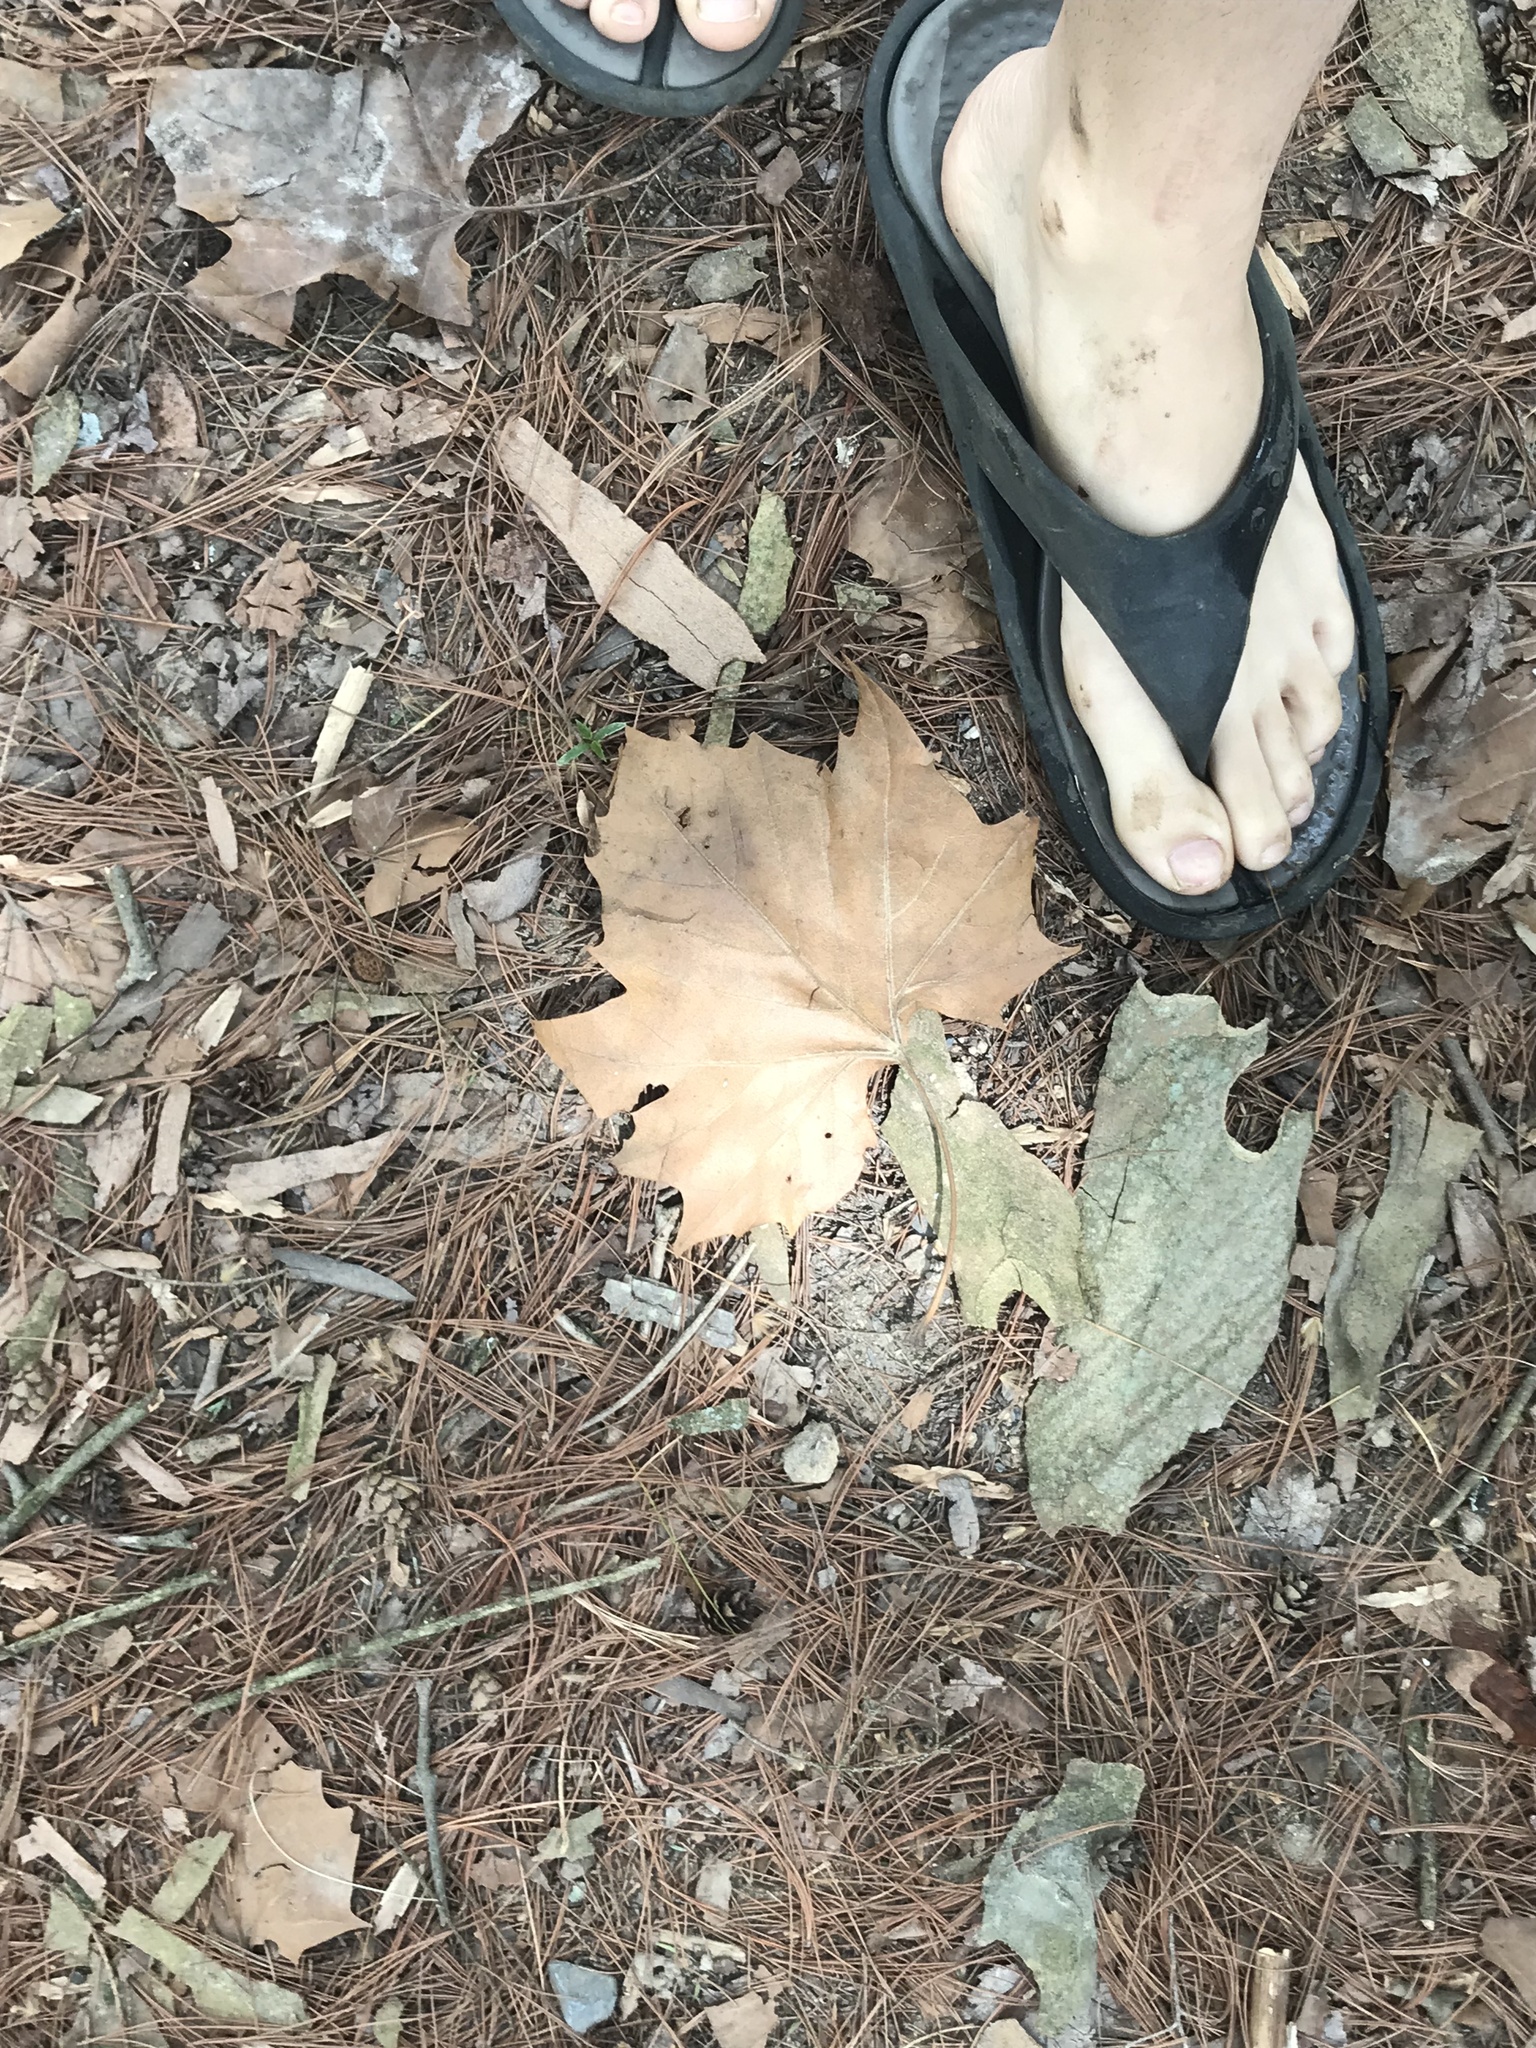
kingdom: Plantae
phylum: Tracheophyta
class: Magnoliopsida
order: Proteales
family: Platanaceae
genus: Platanus
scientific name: Platanus occidentalis
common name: American sycamore
